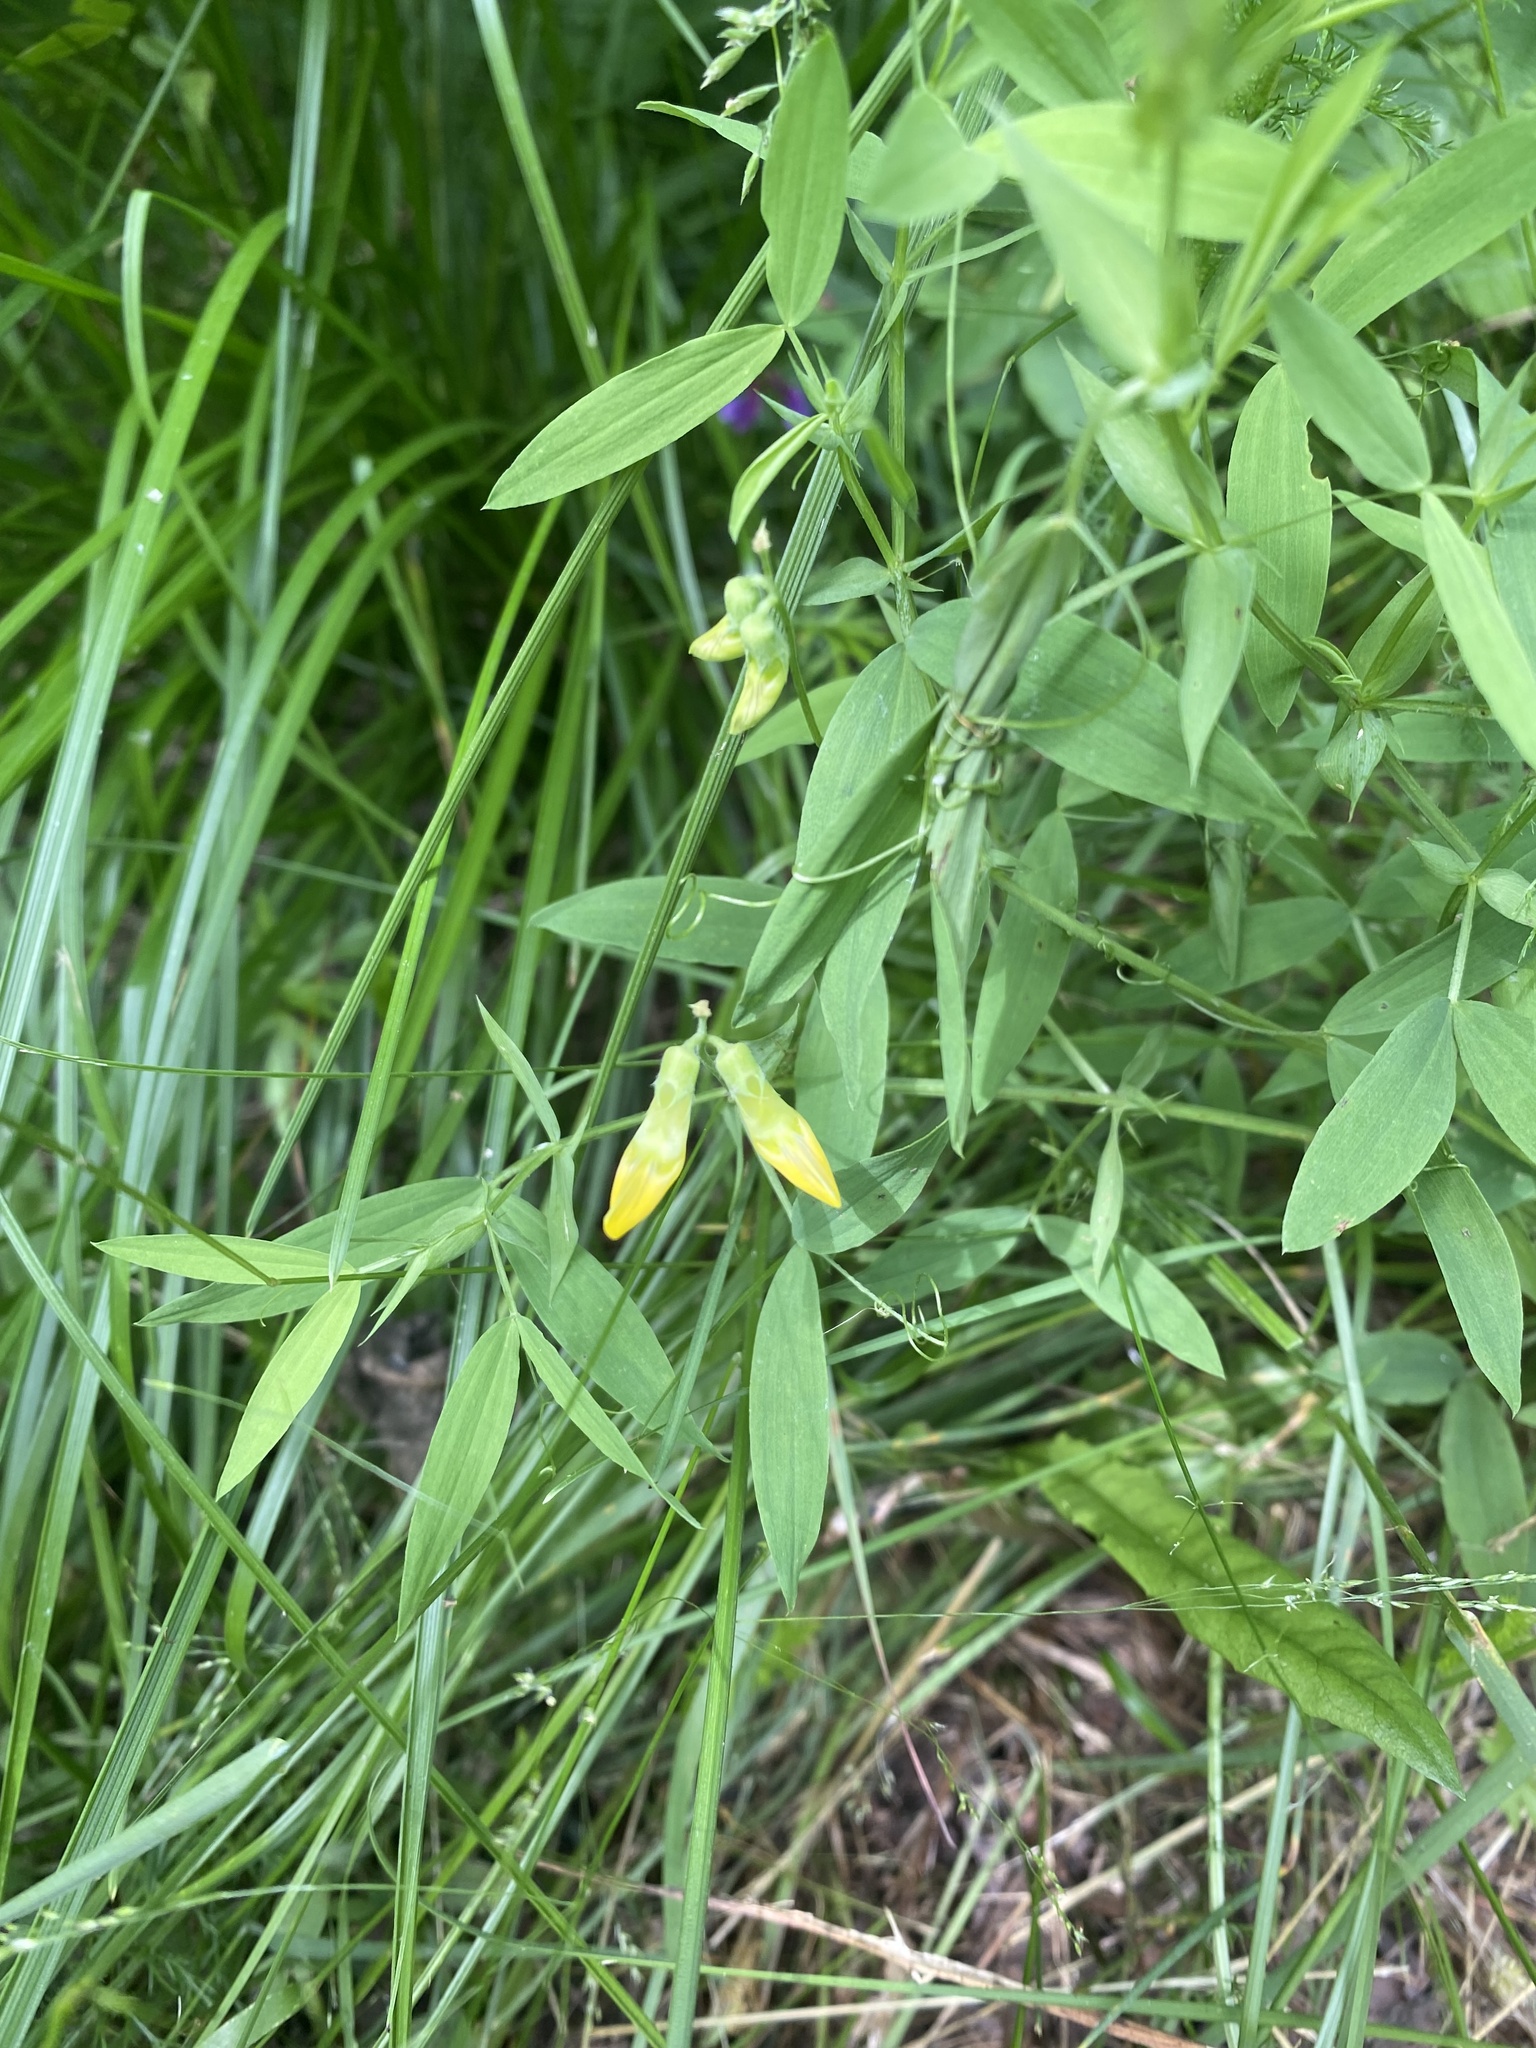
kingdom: Plantae
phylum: Tracheophyta
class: Magnoliopsida
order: Fabales
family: Fabaceae
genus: Lathyrus
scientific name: Lathyrus pratensis
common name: Meadow vetchling
